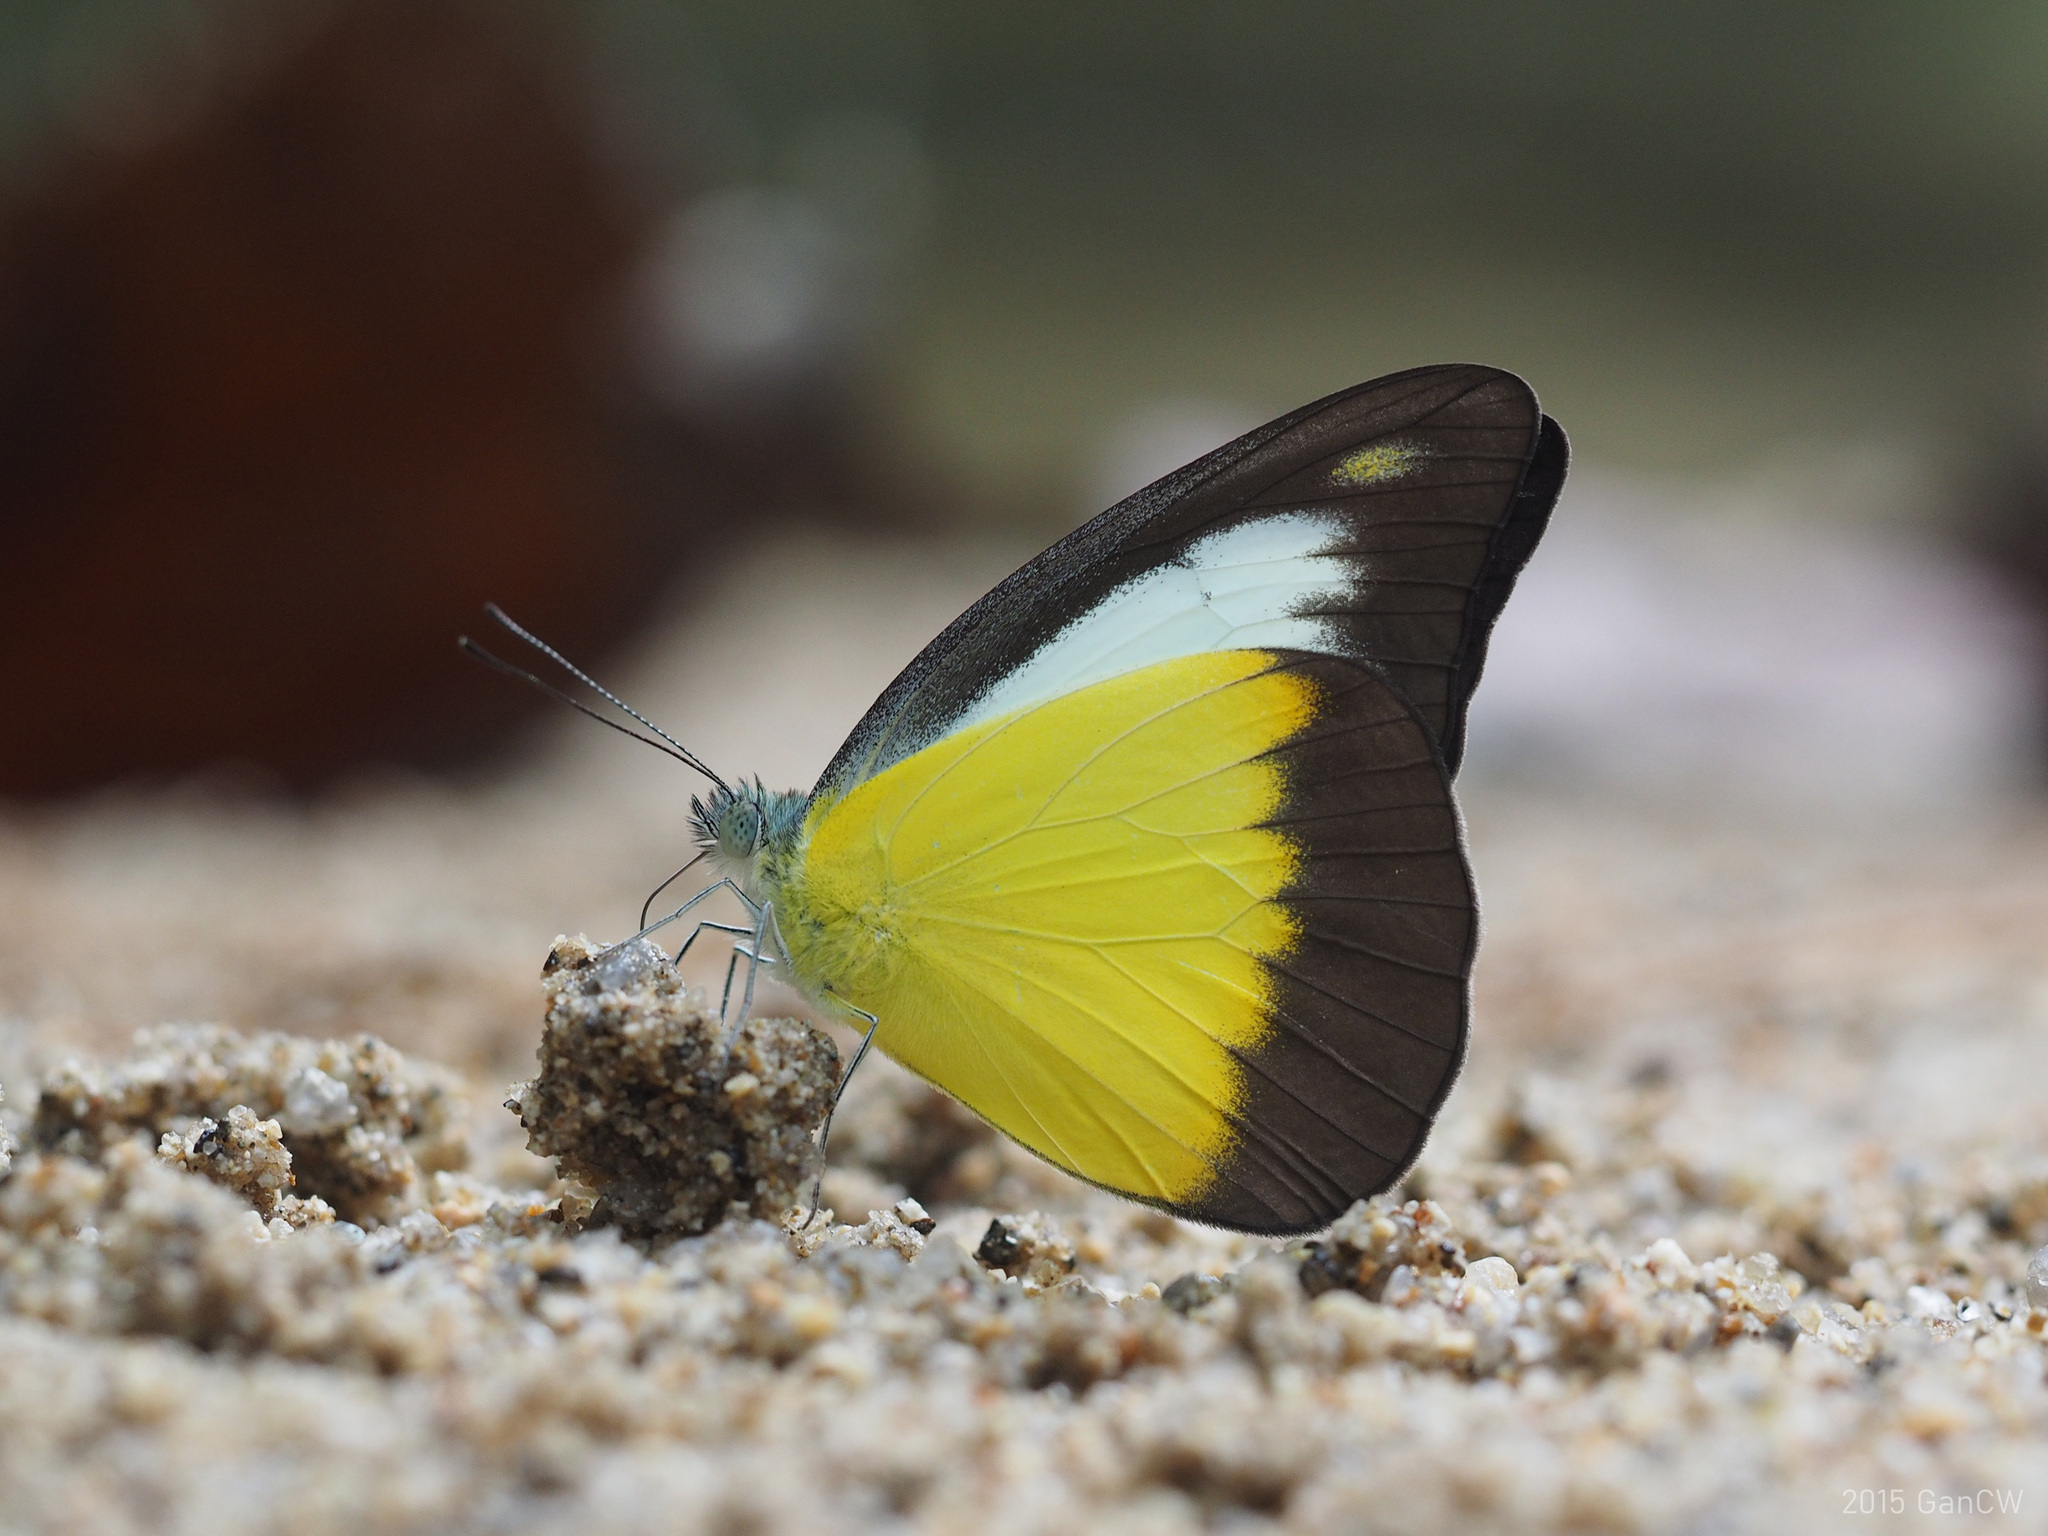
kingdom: Animalia
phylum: Arthropoda
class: Insecta
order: Lepidoptera
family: Pieridae
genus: Appias
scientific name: Appias lyncida
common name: Chocolate albatross
